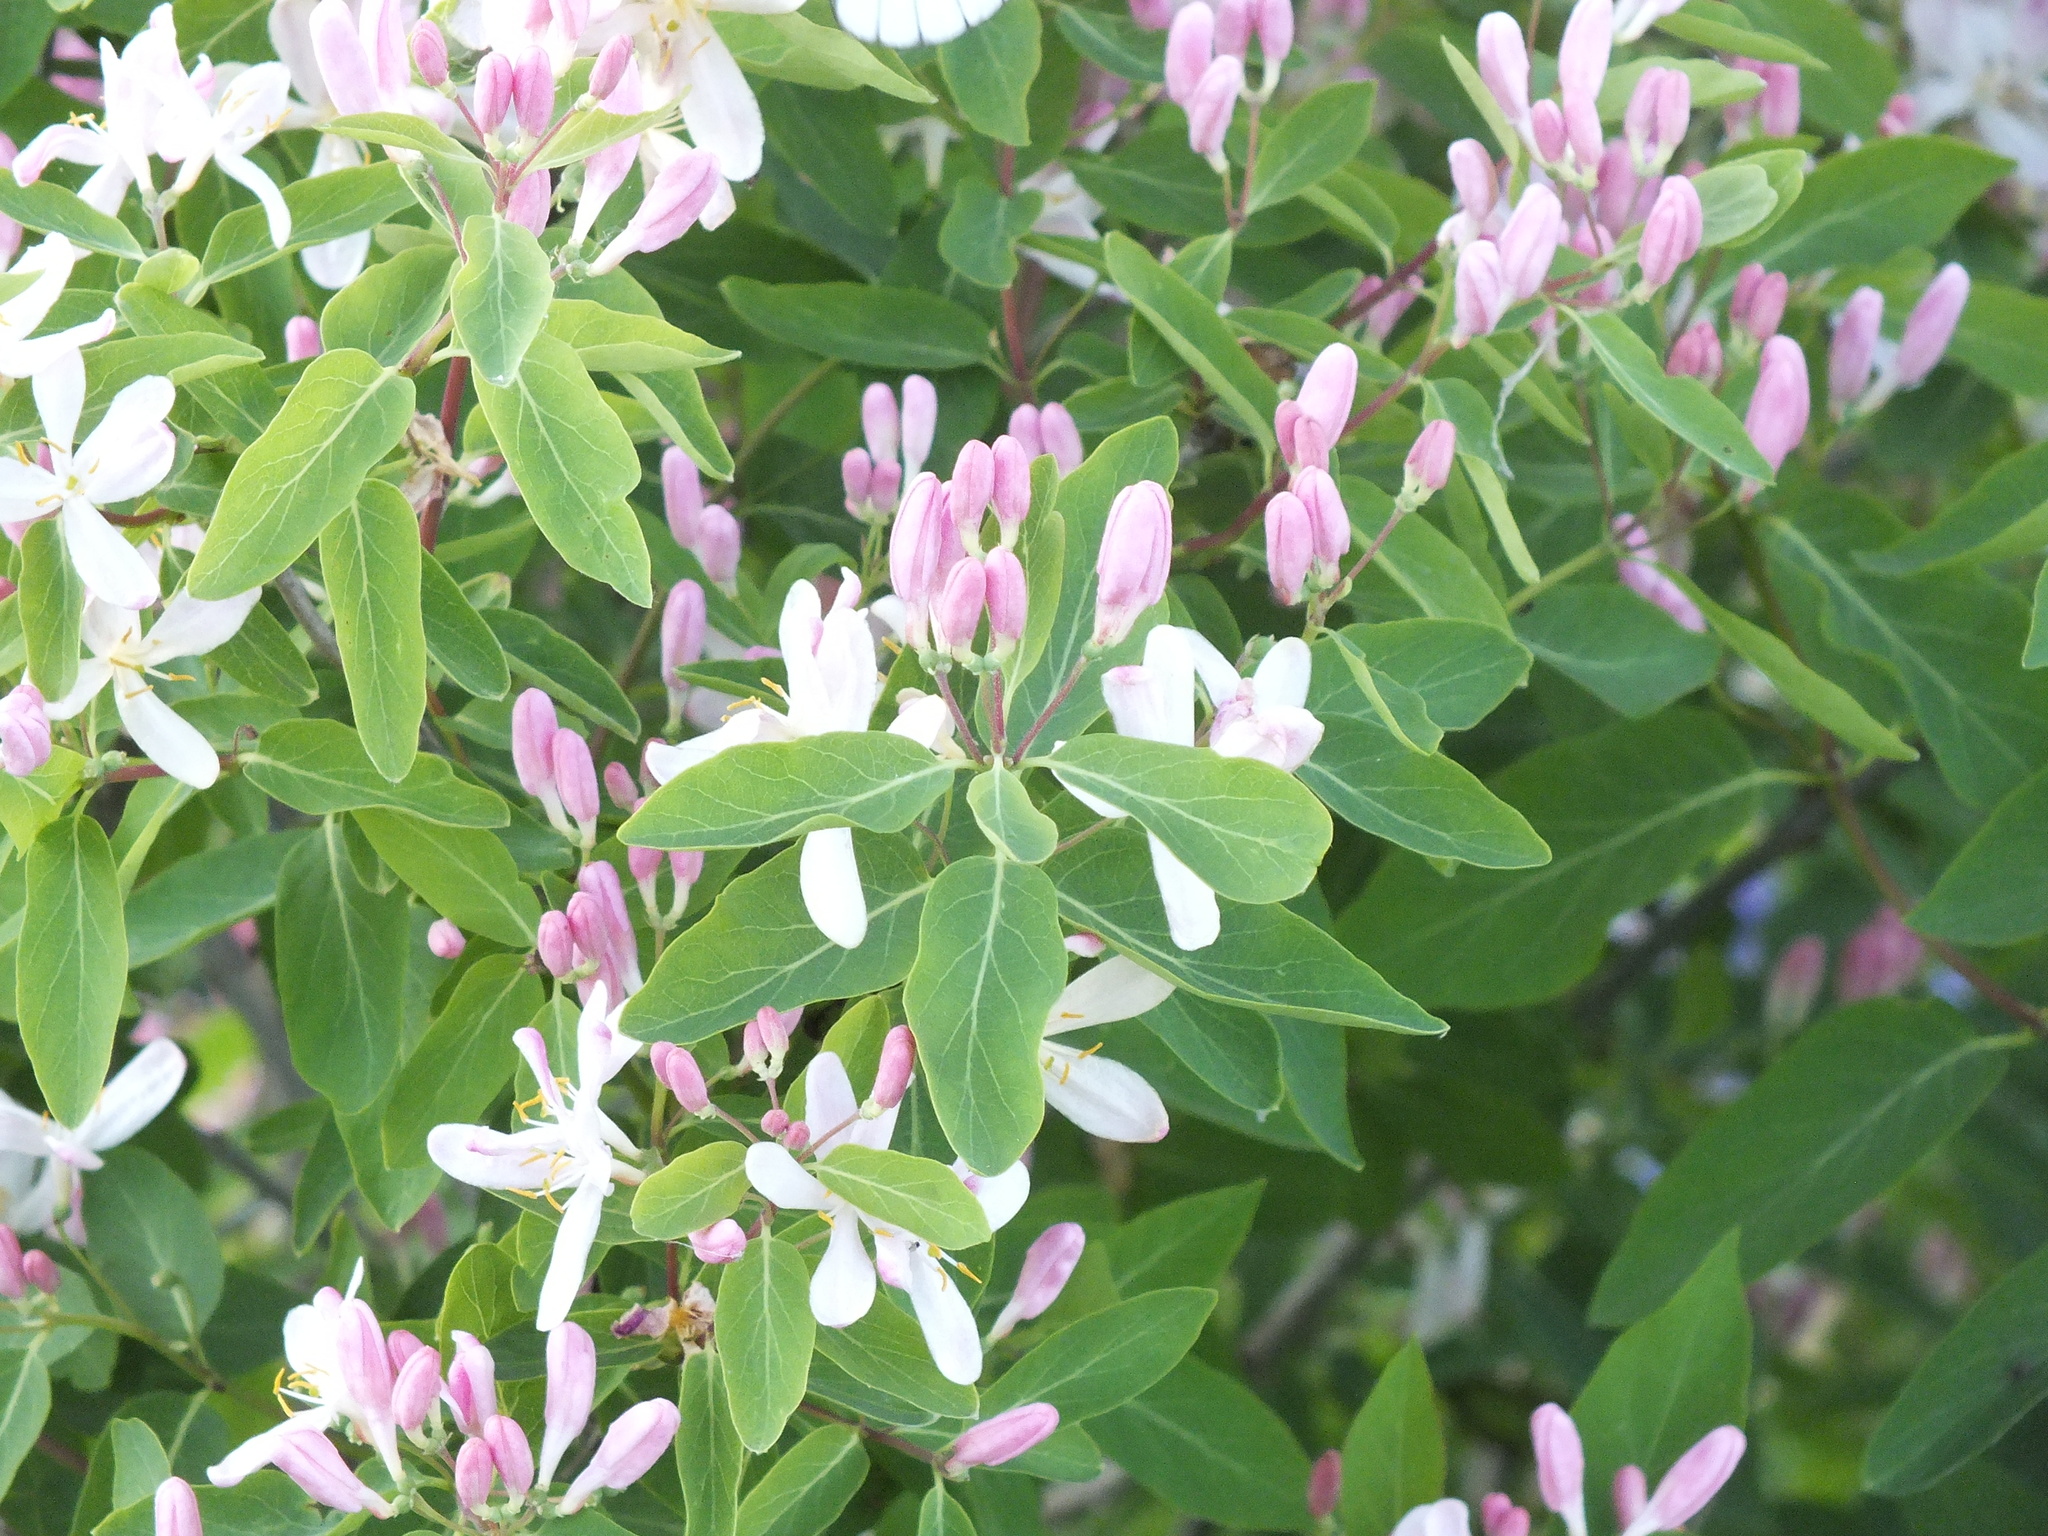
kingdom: Plantae
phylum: Tracheophyta
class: Magnoliopsida
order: Dipsacales
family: Caprifoliaceae
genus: Lonicera
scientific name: Lonicera tatarica
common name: Tatarian honeysuckle
